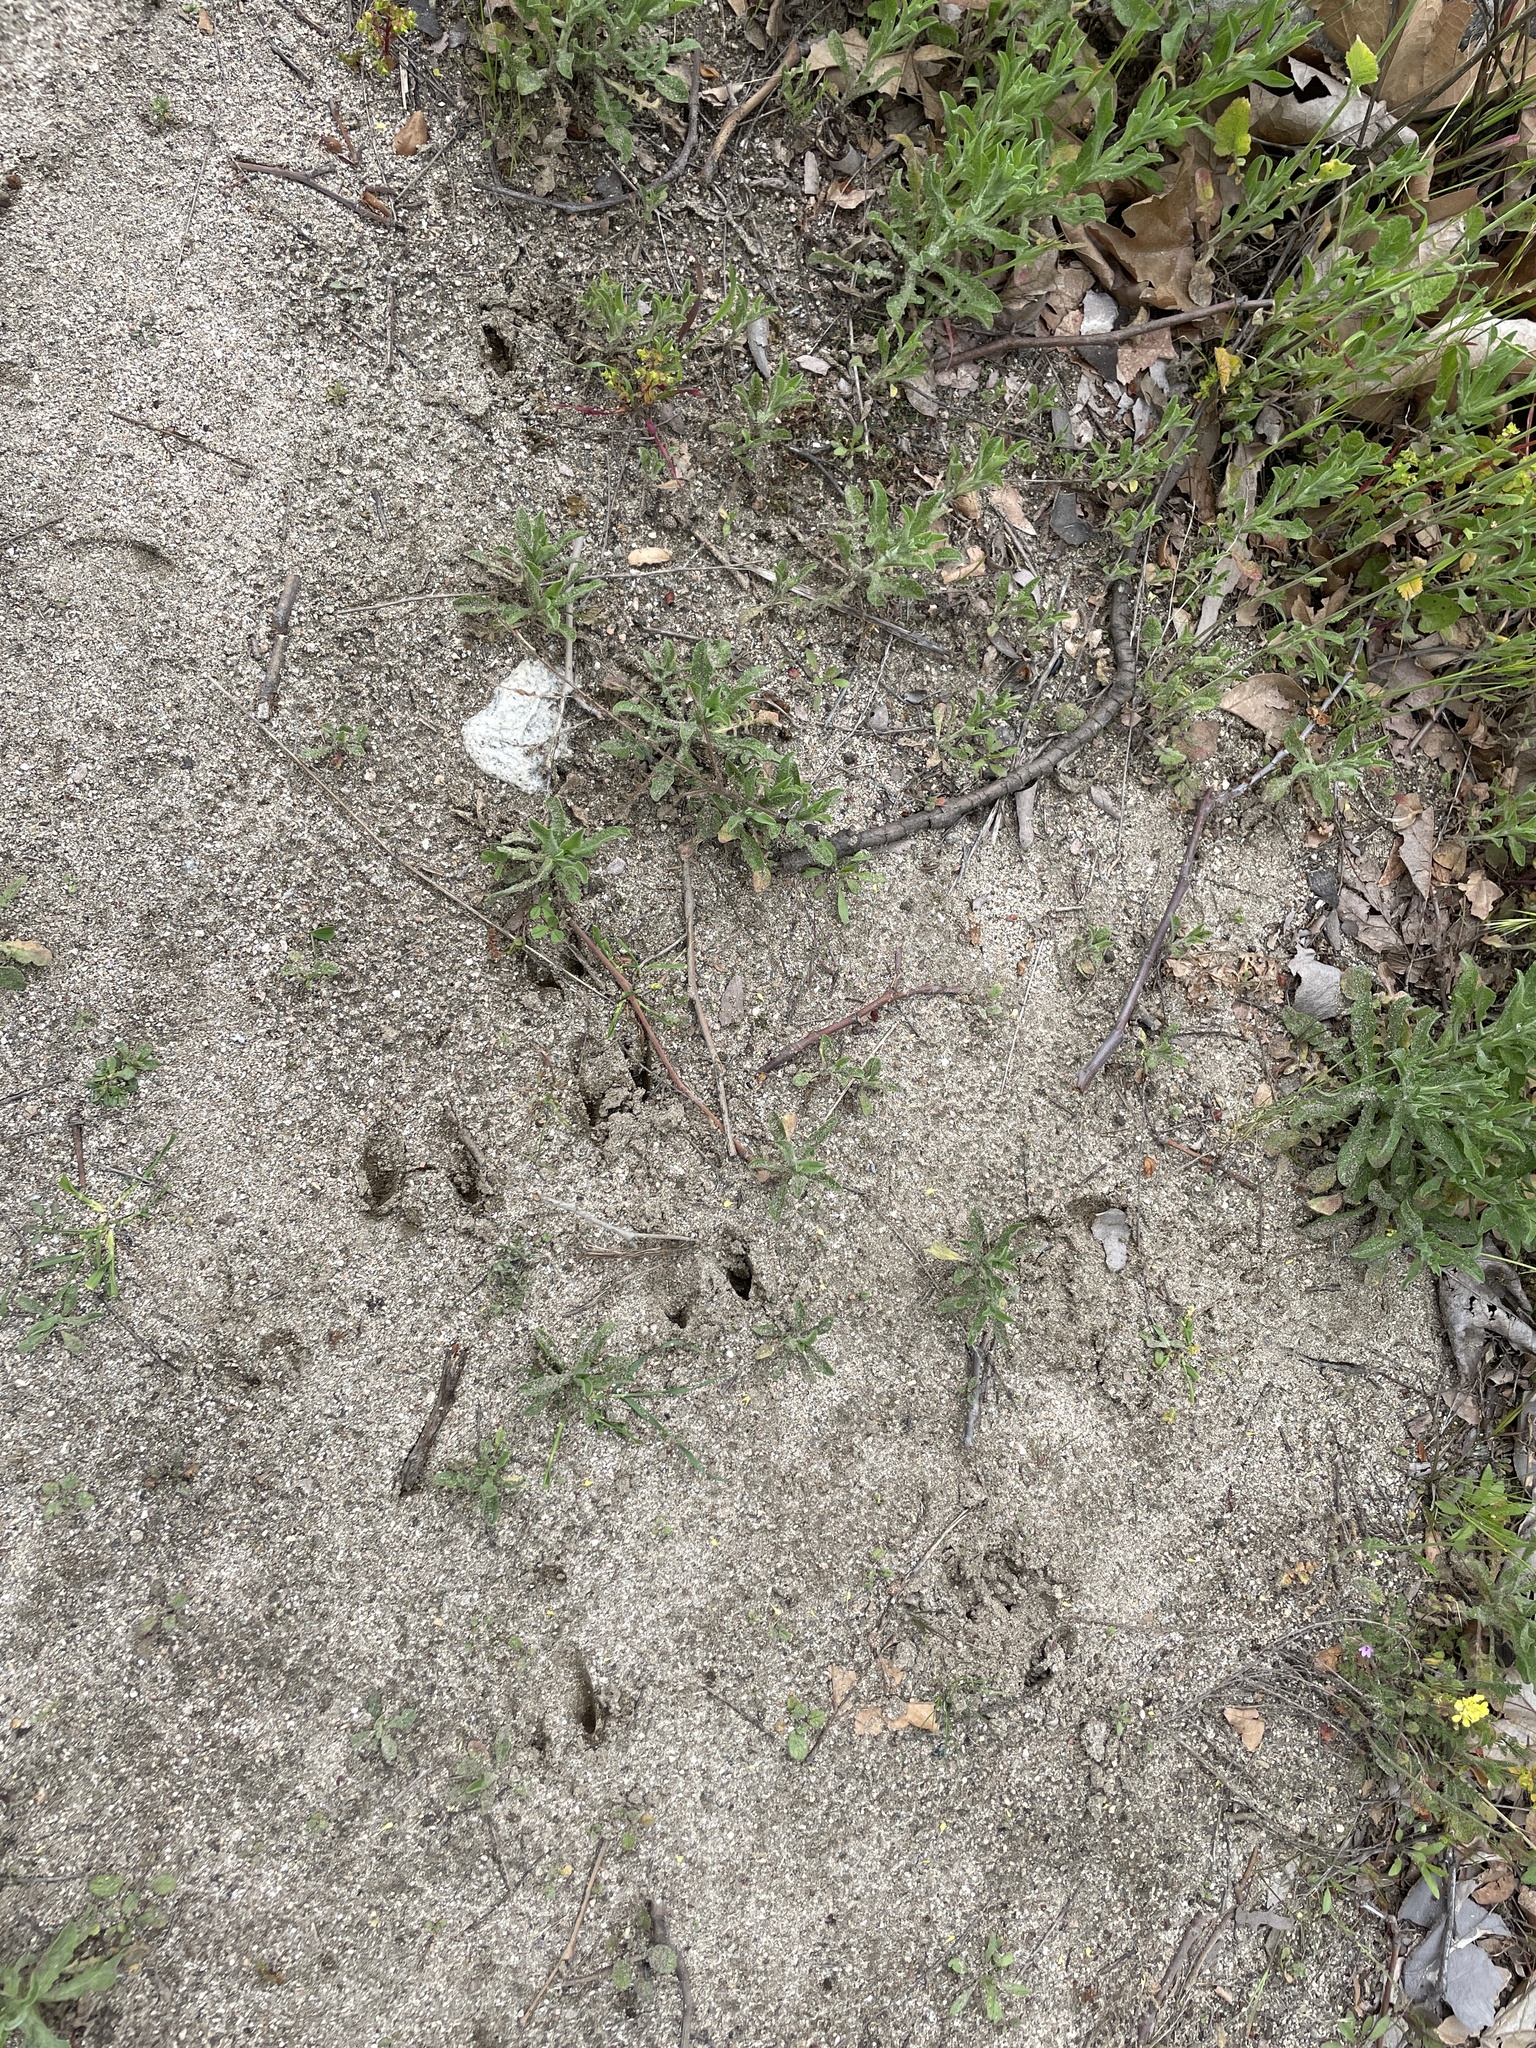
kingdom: Animalia
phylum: Chordata
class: Mammalia
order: Artiodactyla
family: Cervidae
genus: Odocoileus
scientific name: Odocoileus hemionus
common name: Mule deer
